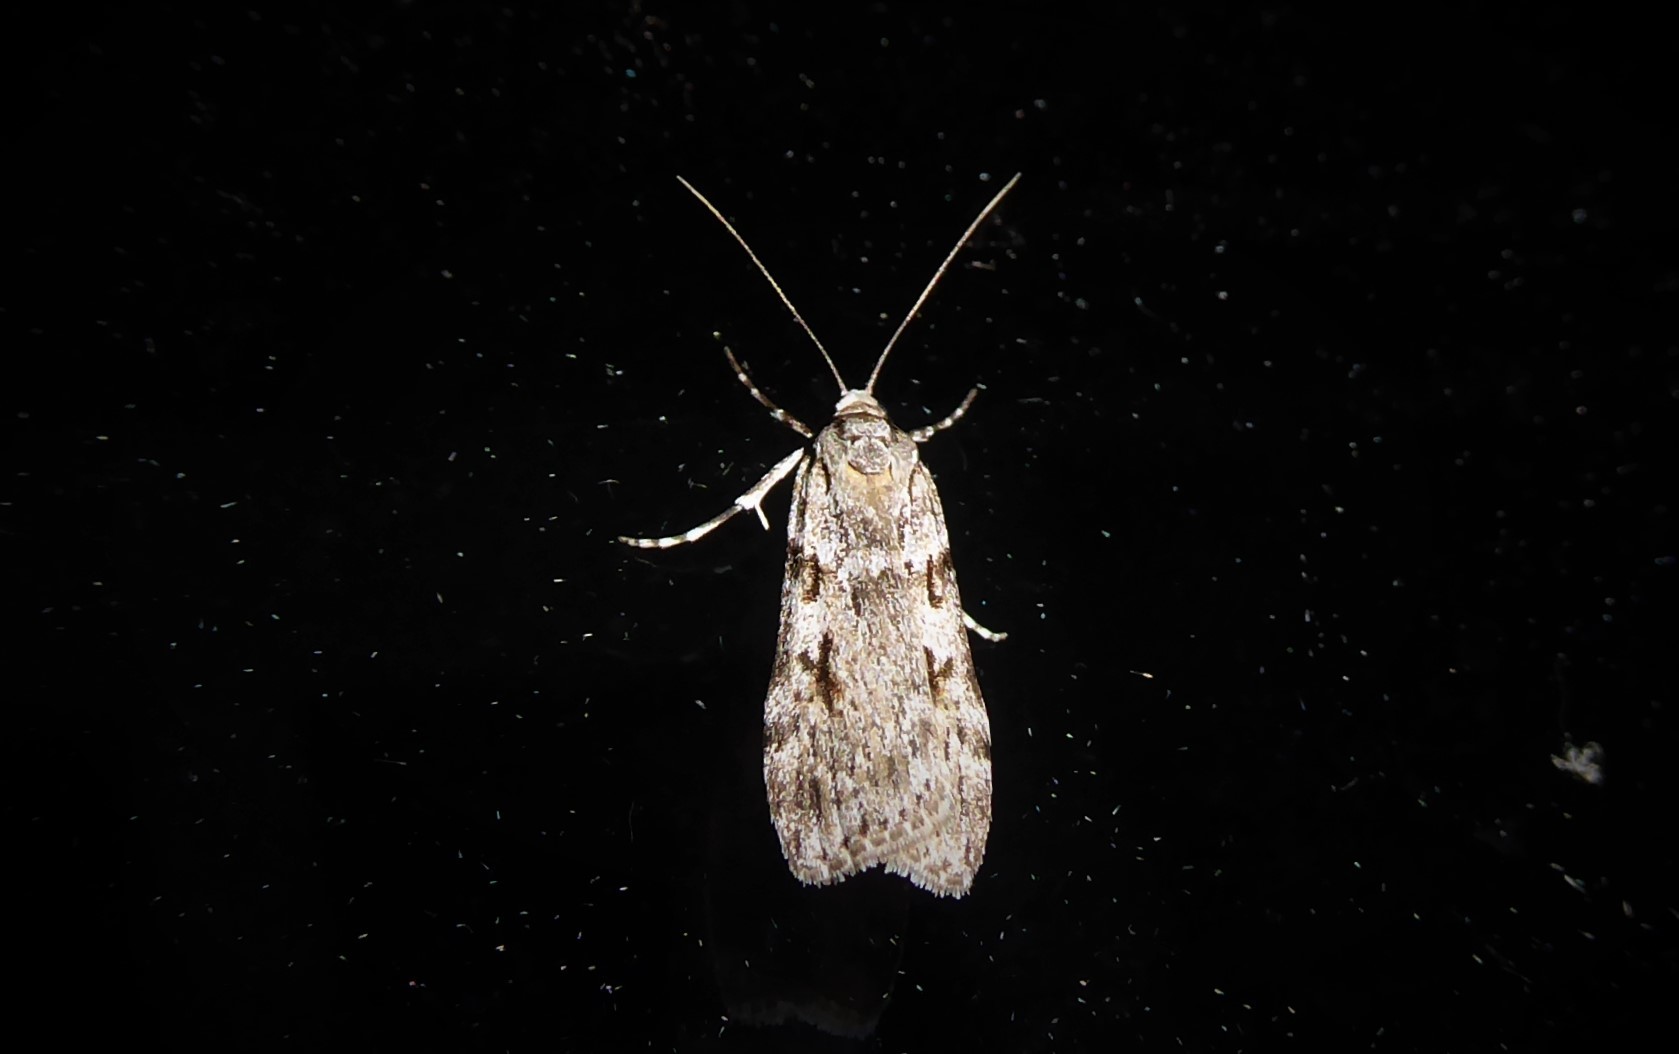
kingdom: Animalia
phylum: Arthropoda
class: Insecta
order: Lepidoptera
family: Crambidae
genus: Scoparia
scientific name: Scoparia halopis
